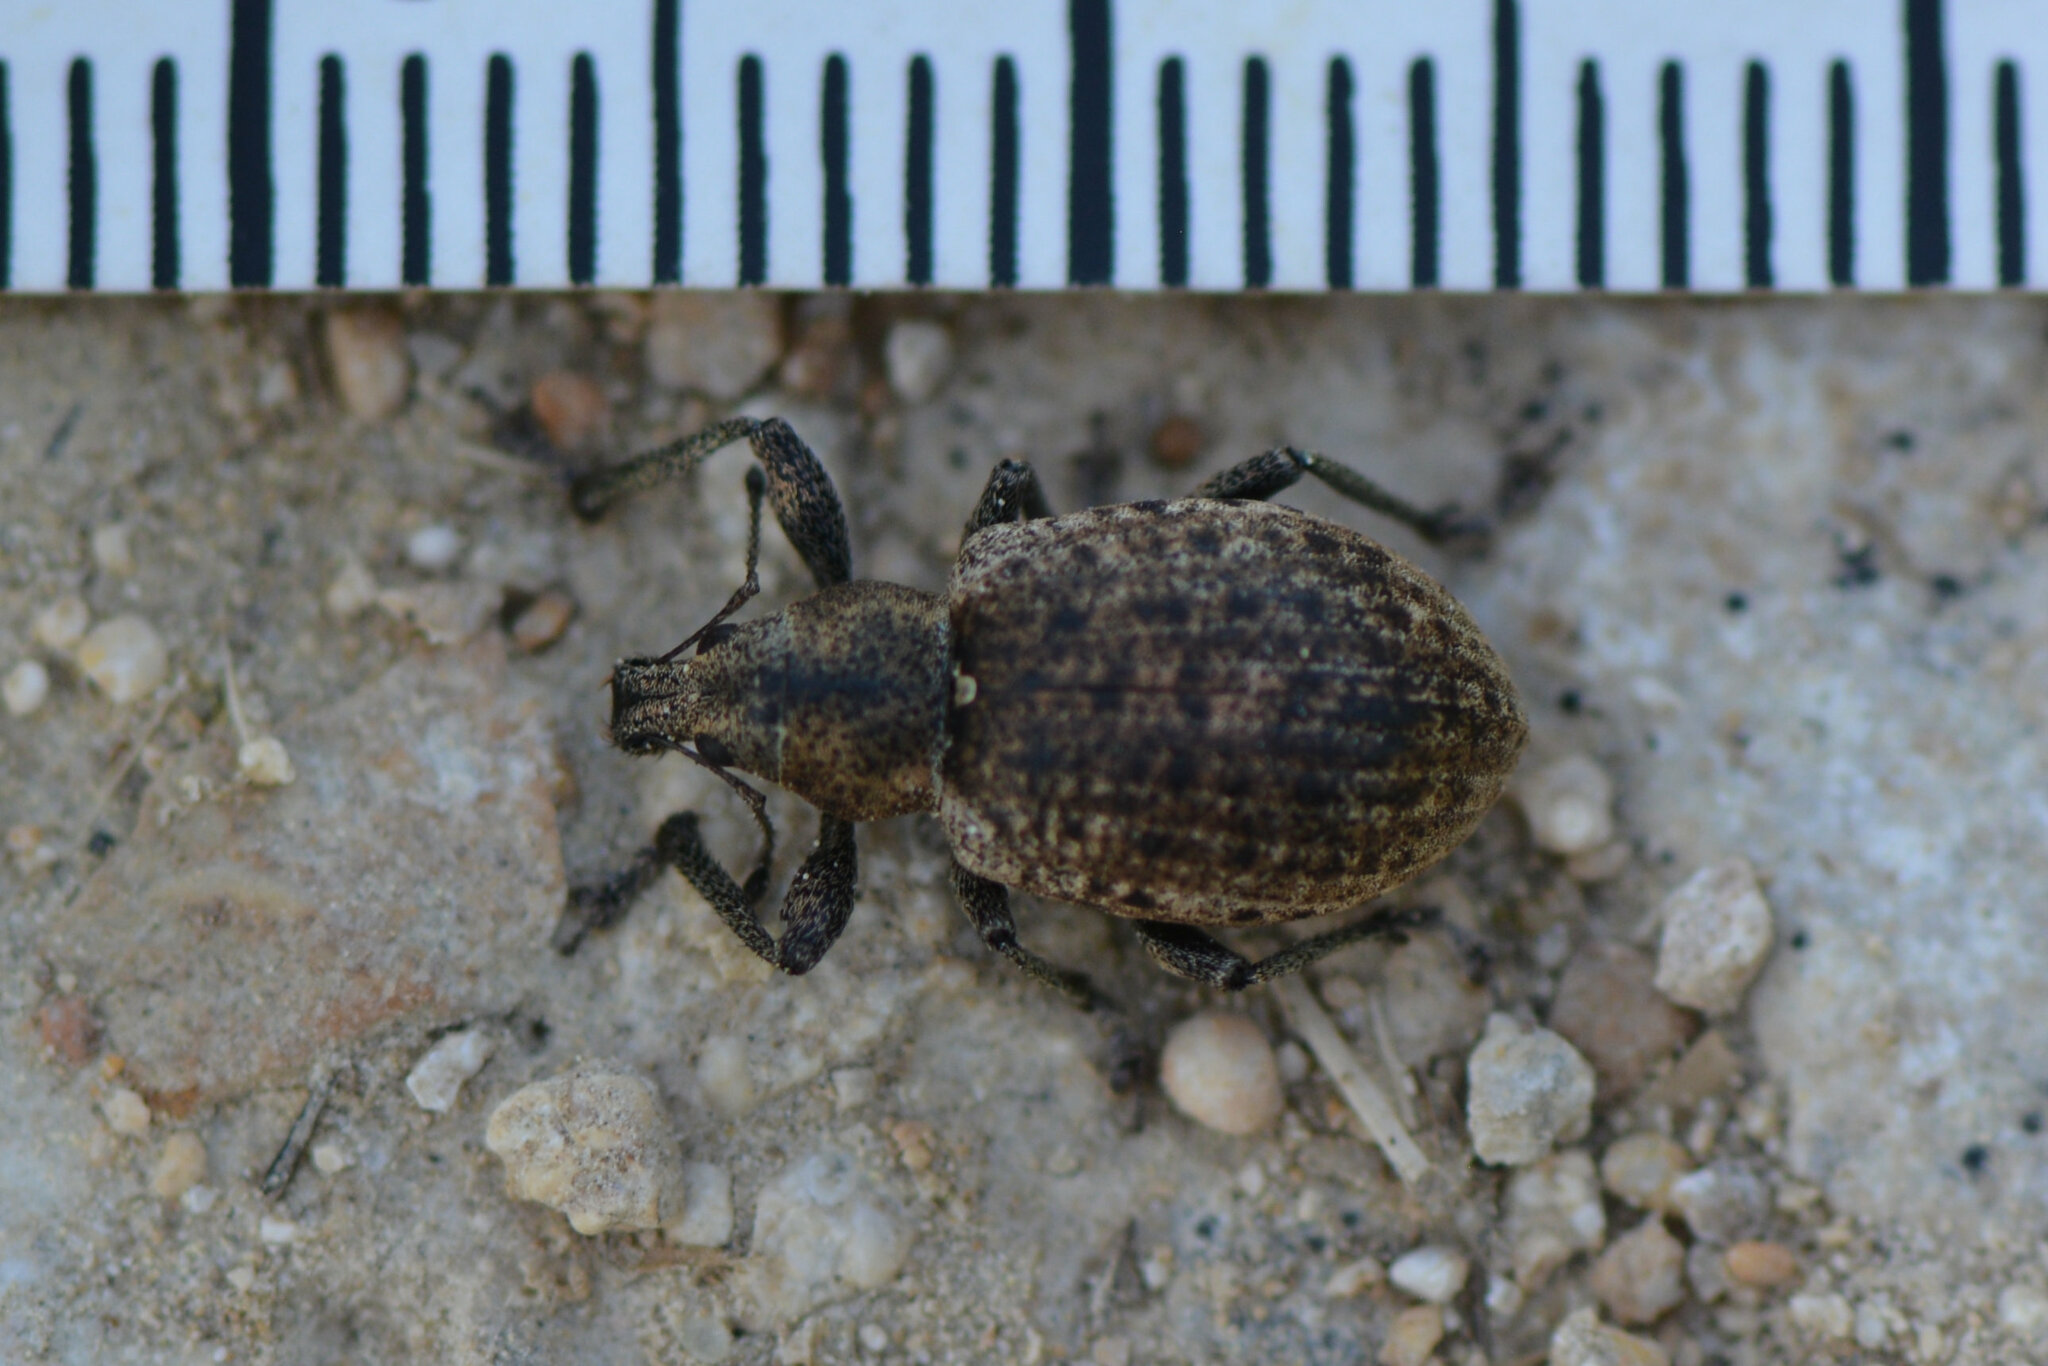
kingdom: Animalia
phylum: Arthropoda
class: Insecta
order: Coleoptera
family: Curculionidae
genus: Liophloeus
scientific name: Liophloeus tessulatus
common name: Weevil
